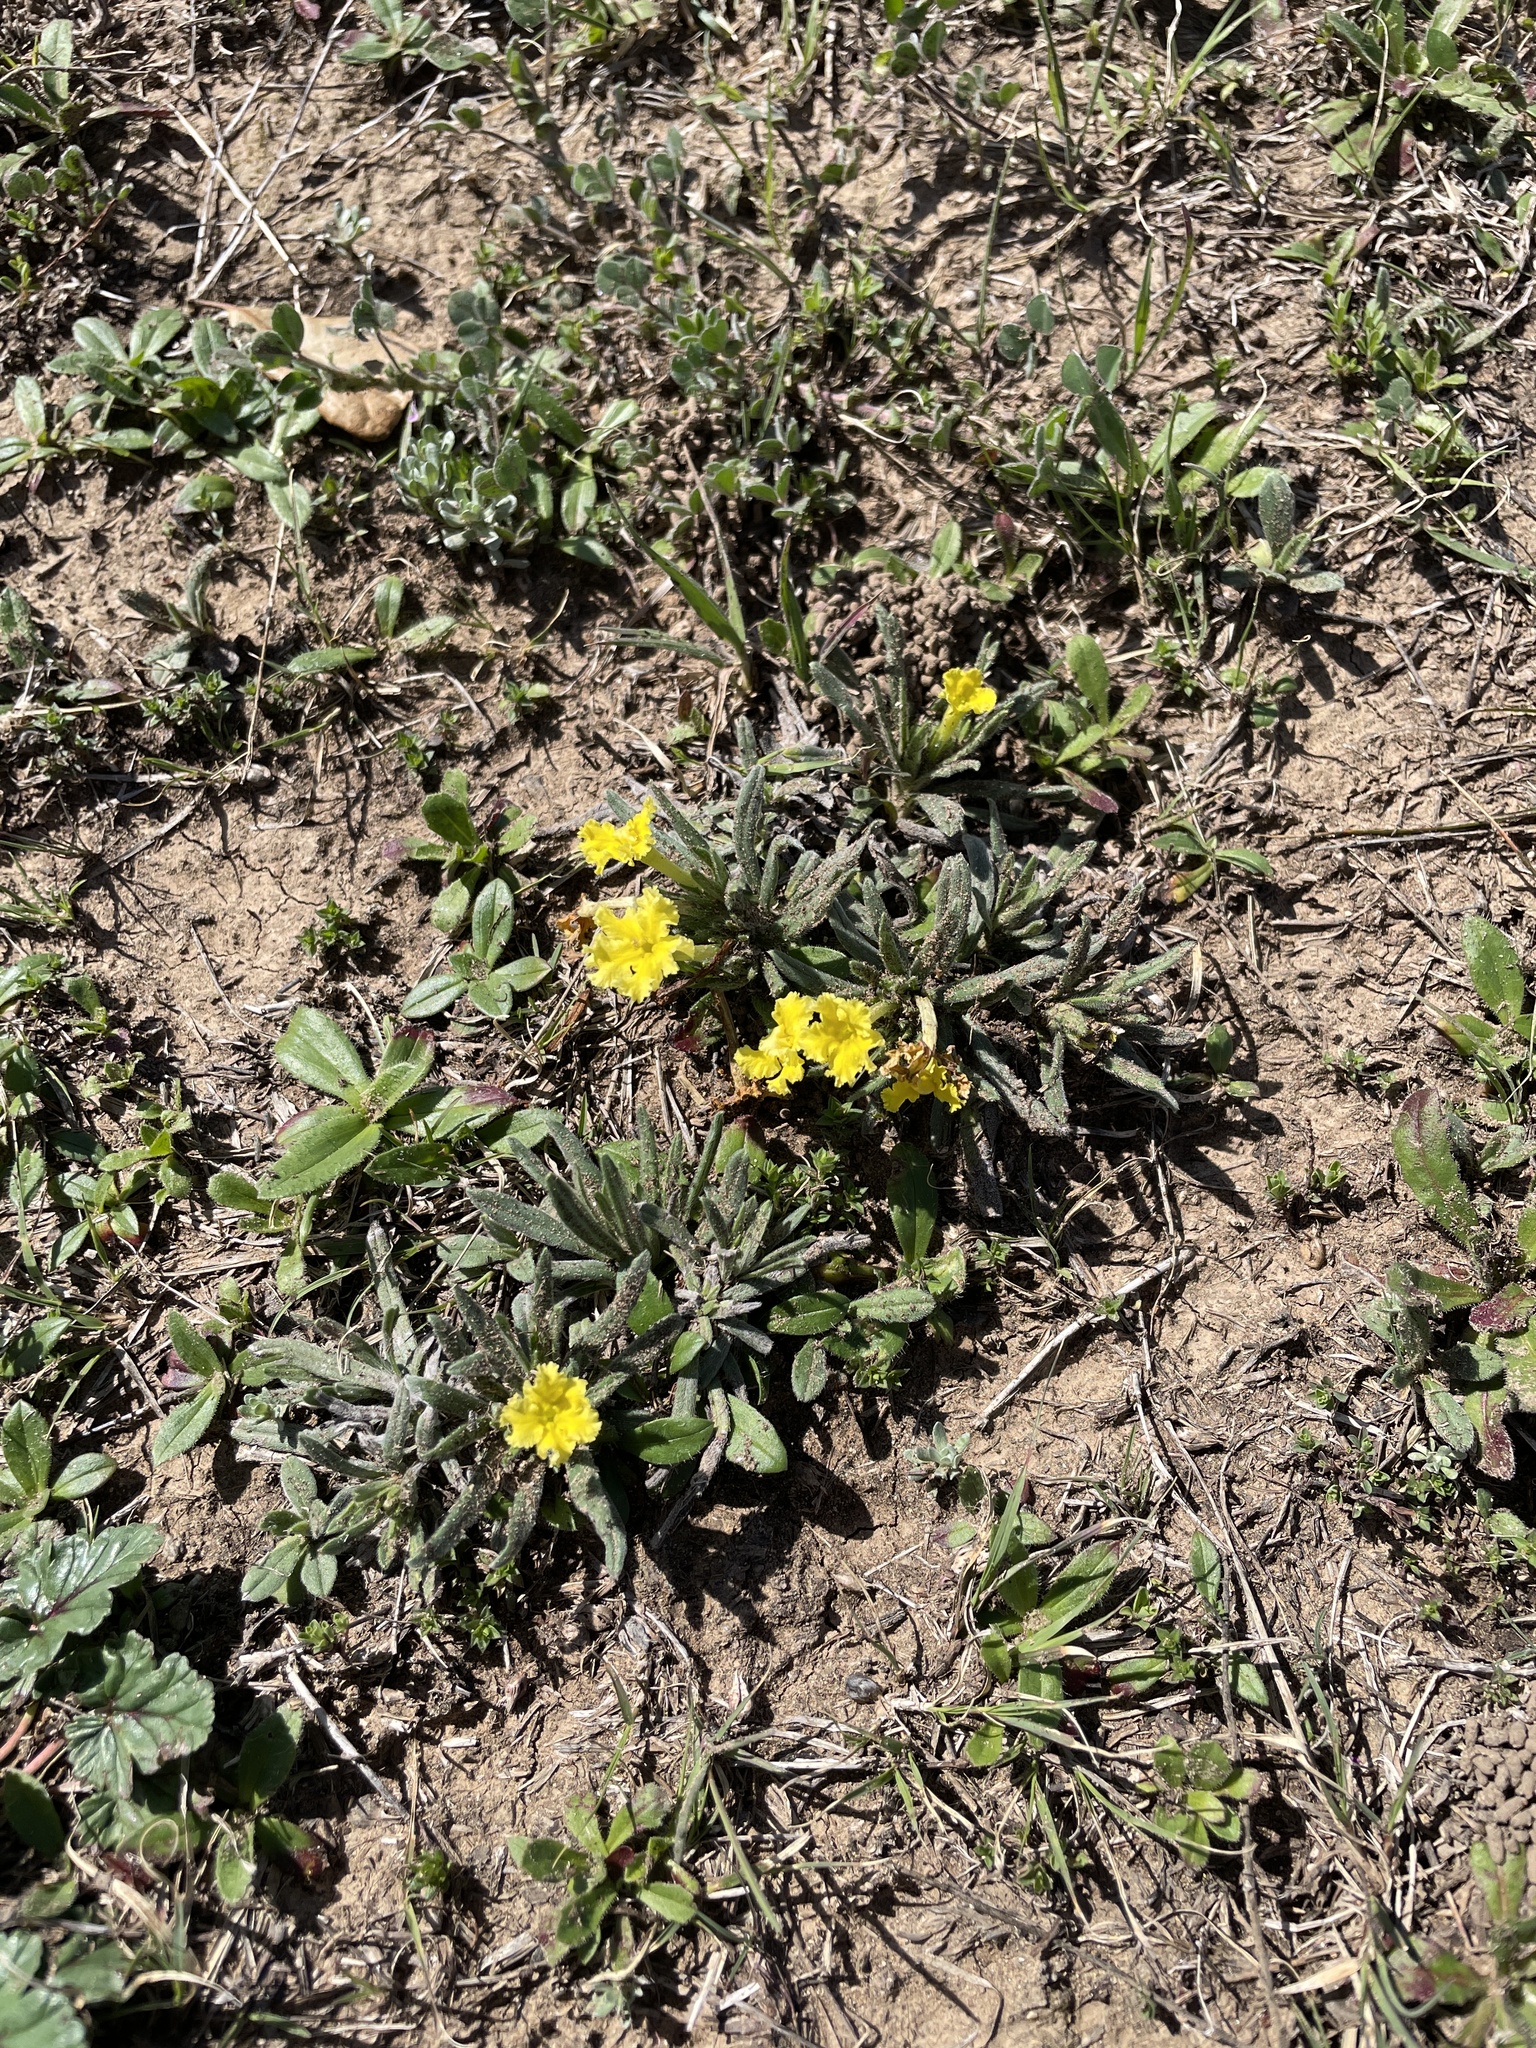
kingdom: Plantae
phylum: Tracheophyta
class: Magnoliopsida
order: Boraginales
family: Boraginaceae
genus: Lithospermum
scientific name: Lithospermum incisum
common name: Fringed gromwell
